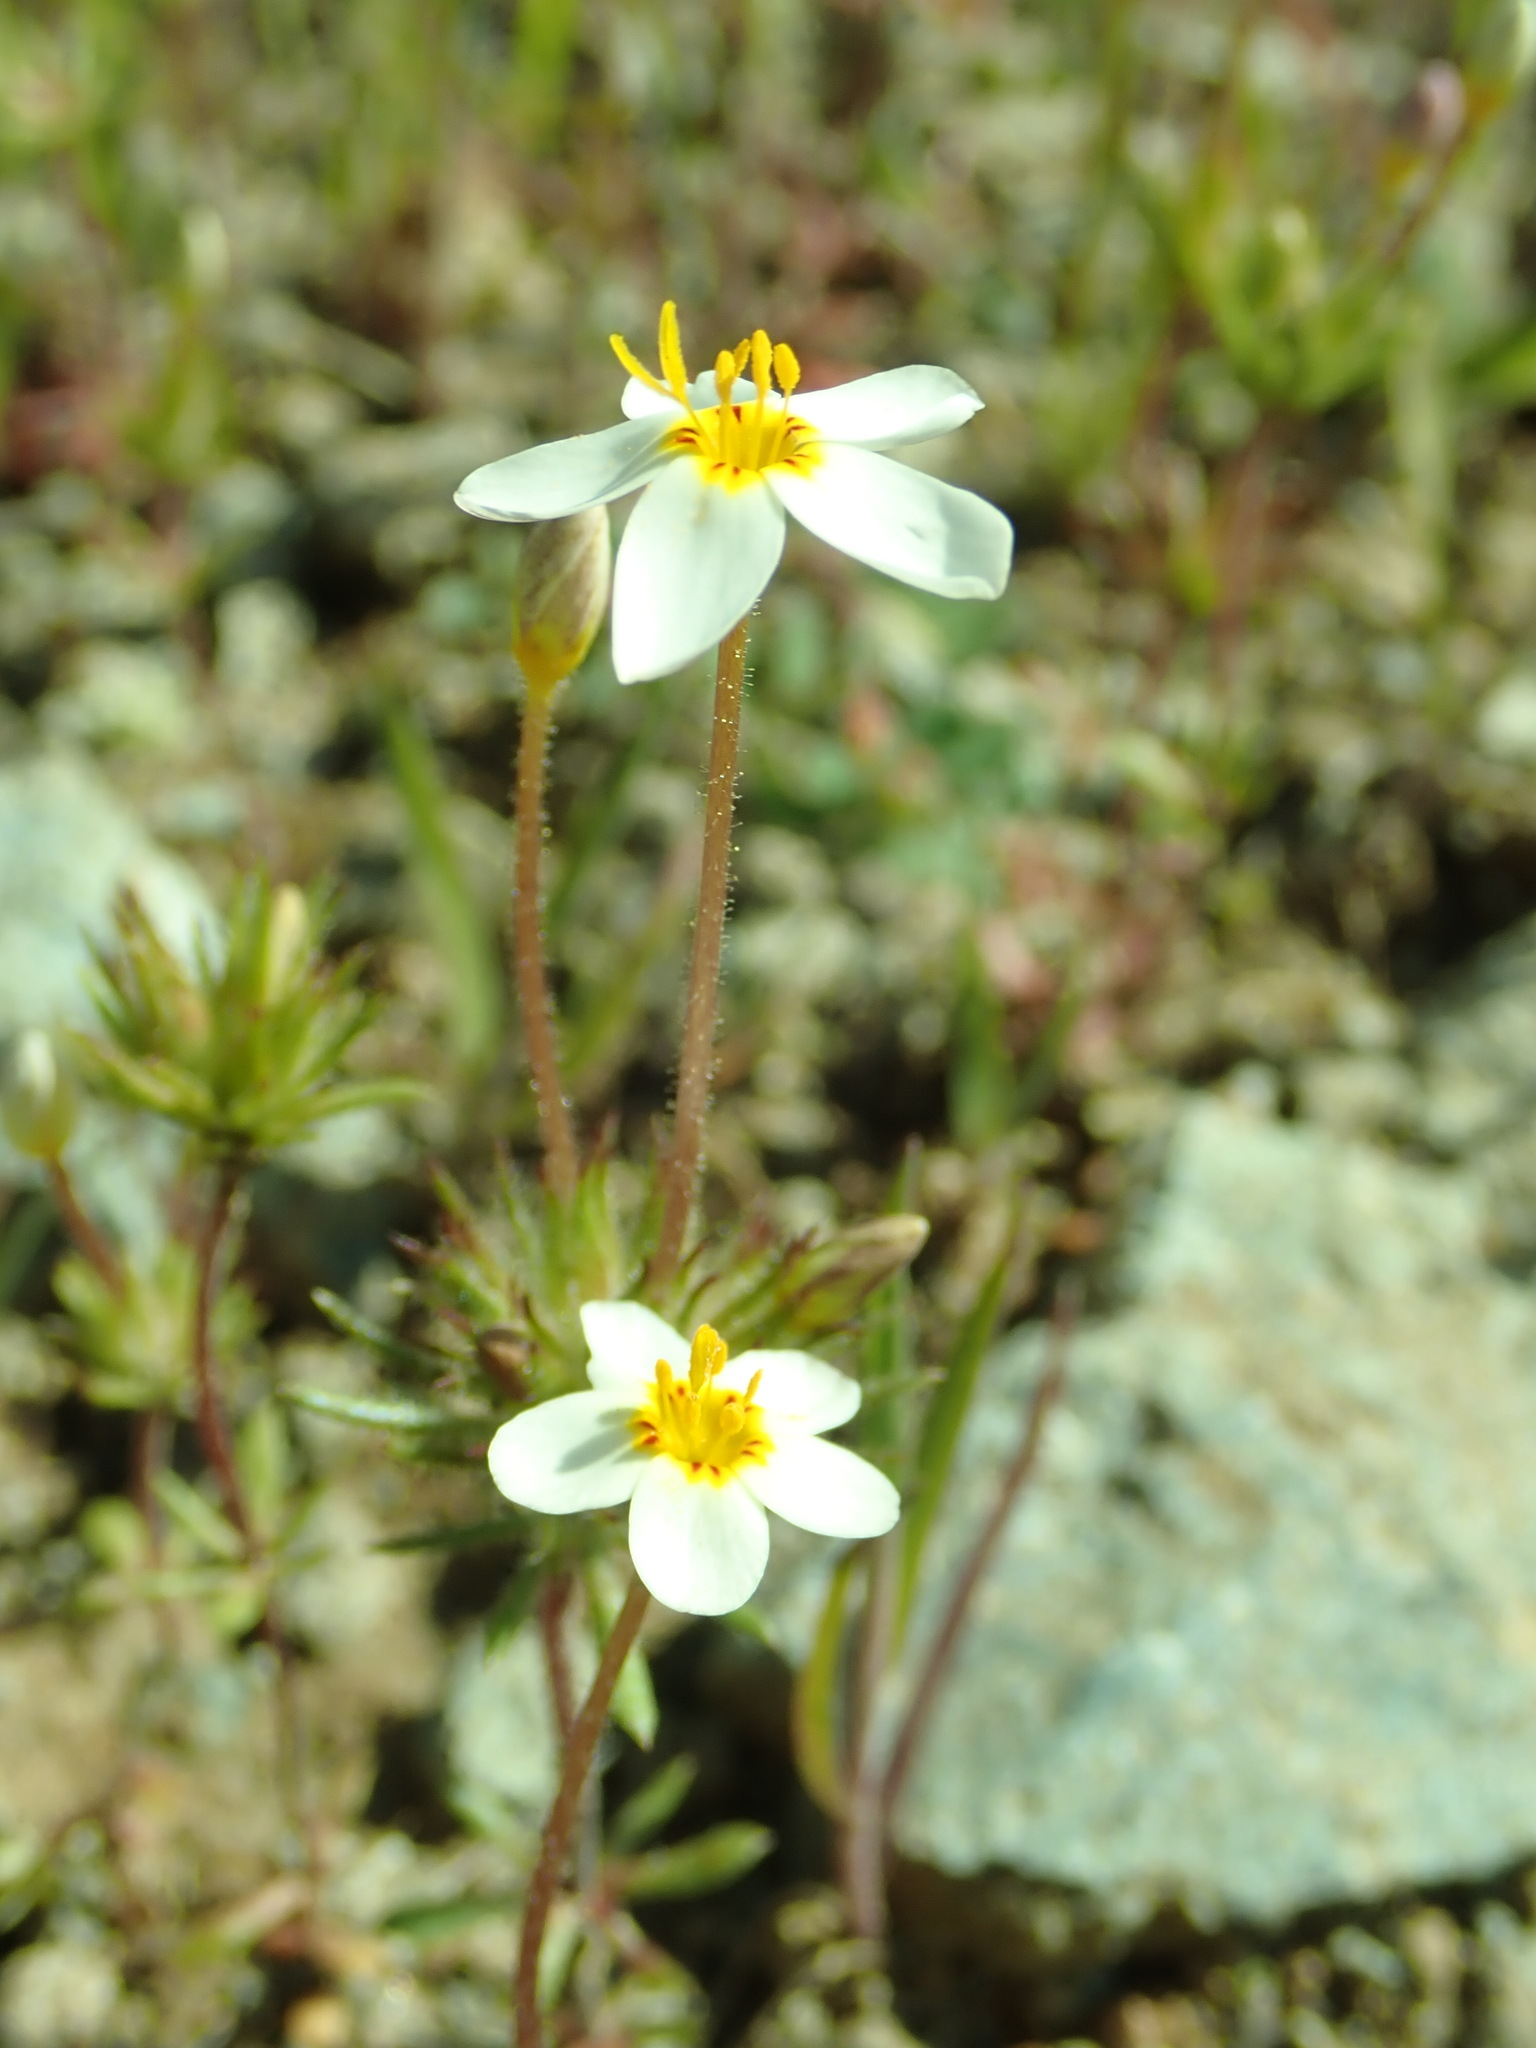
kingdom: Plantae
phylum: Tracheophyta
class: Magnoliopsida
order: Ericales
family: Polemoniaceae
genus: Leptosiphon
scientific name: Leptosiphon parviflorus
